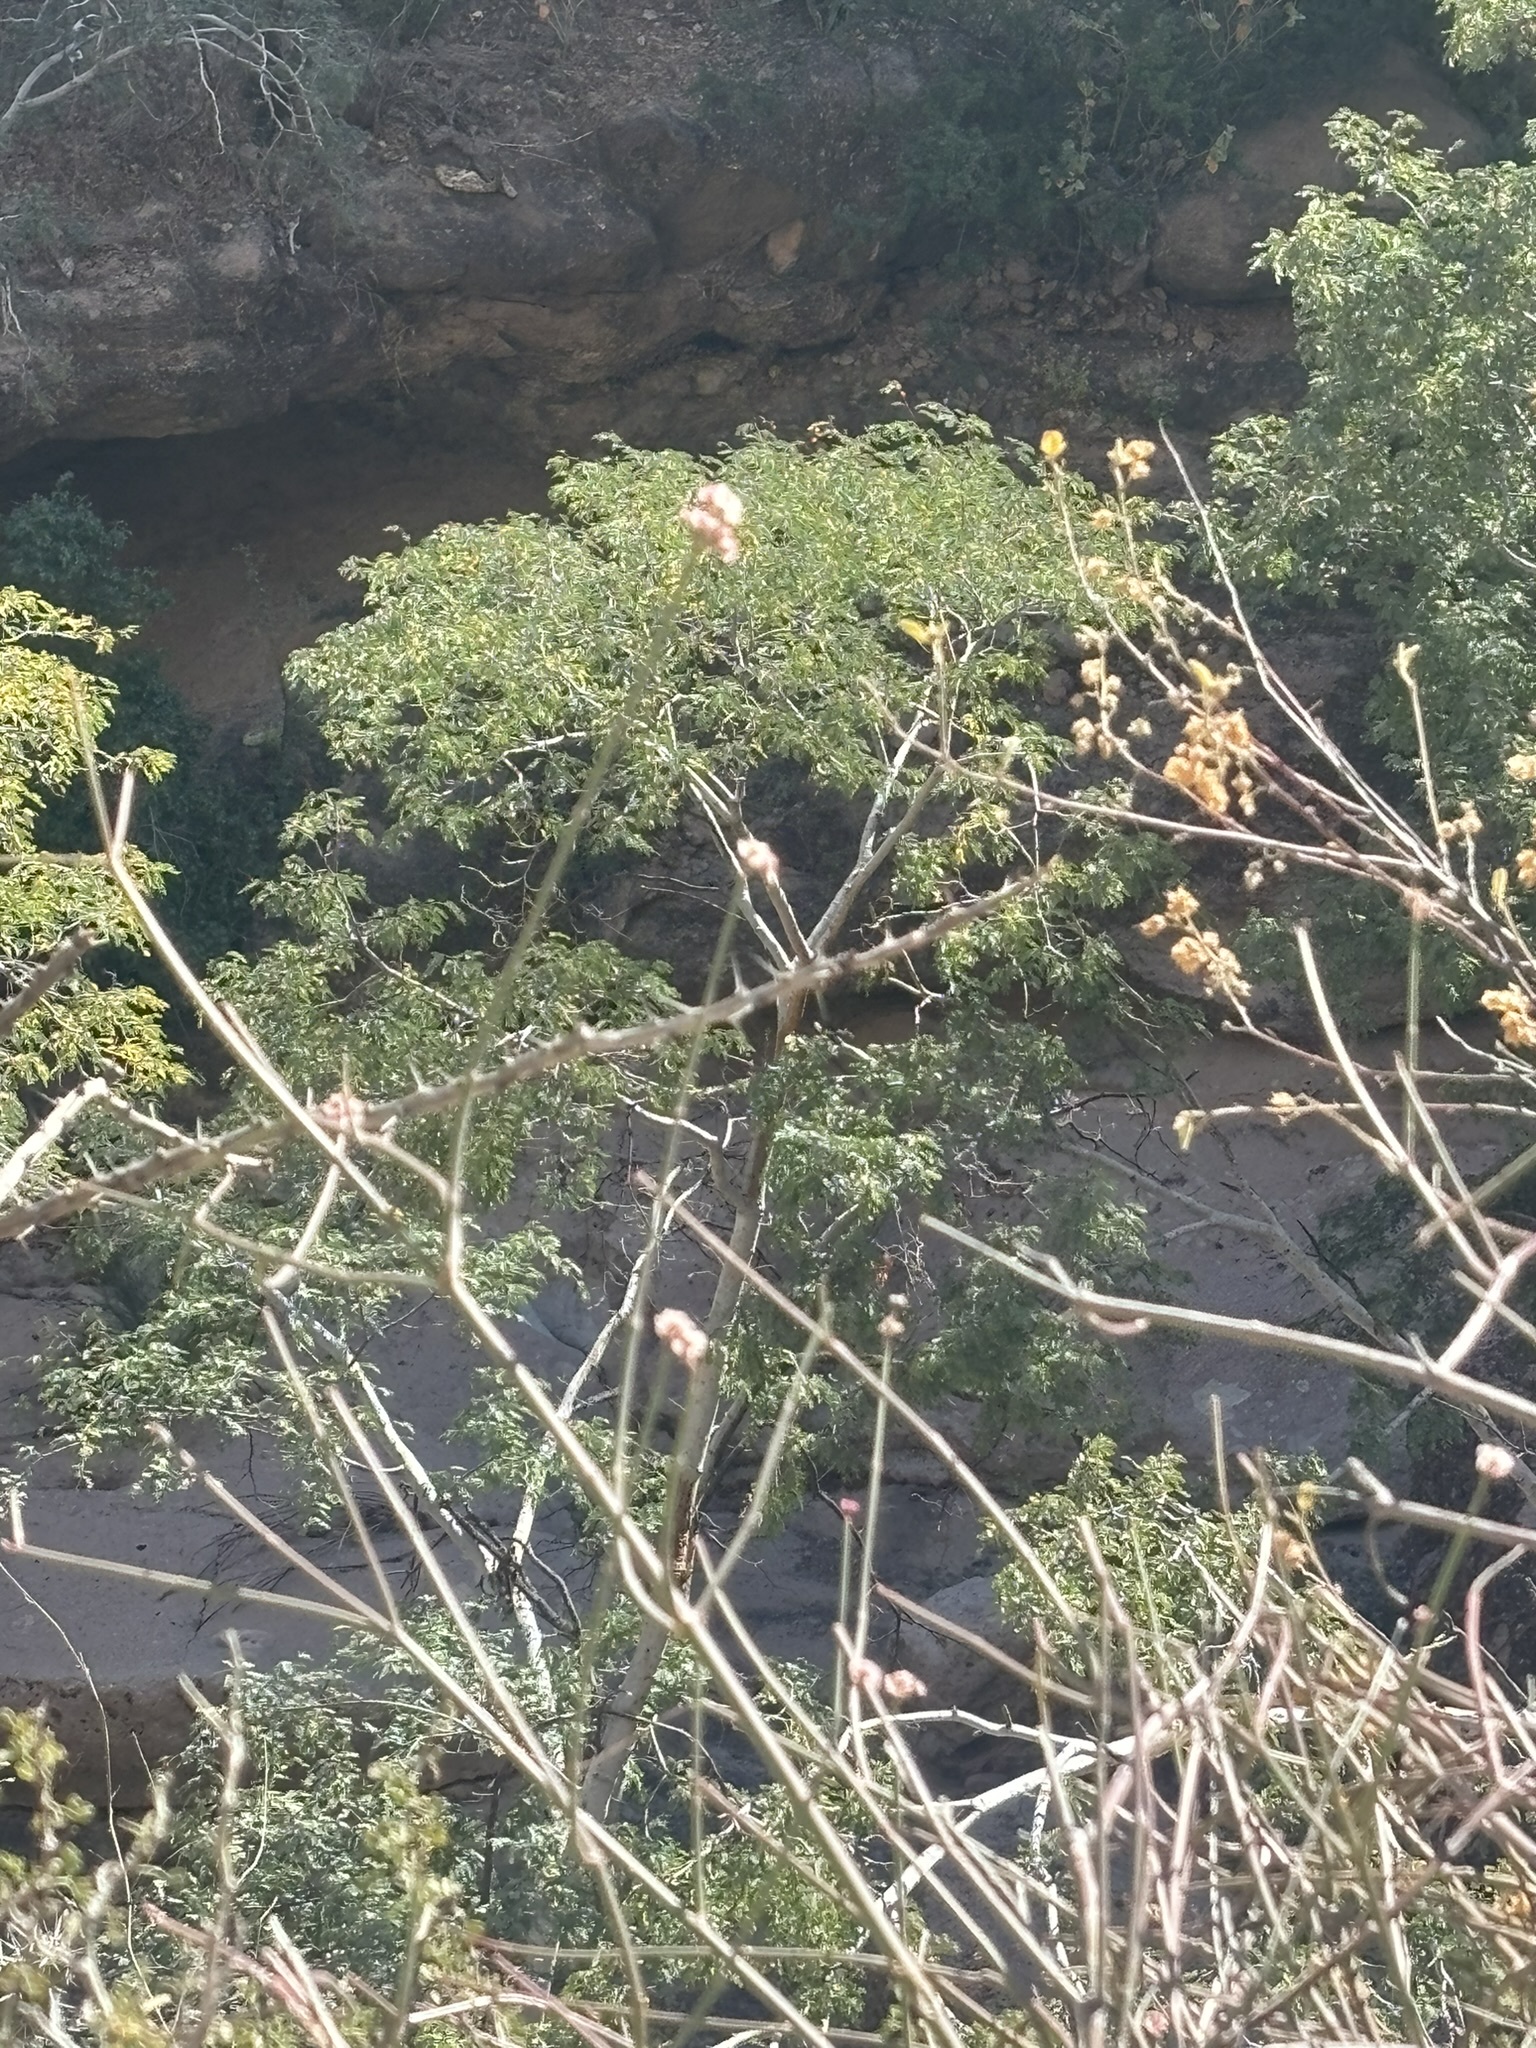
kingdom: Plantae
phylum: Tracheophyta
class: Magnoliopsida
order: Malpighiales
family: Euphorbiaceae
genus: Euphorbia
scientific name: Euphorbia xanti
